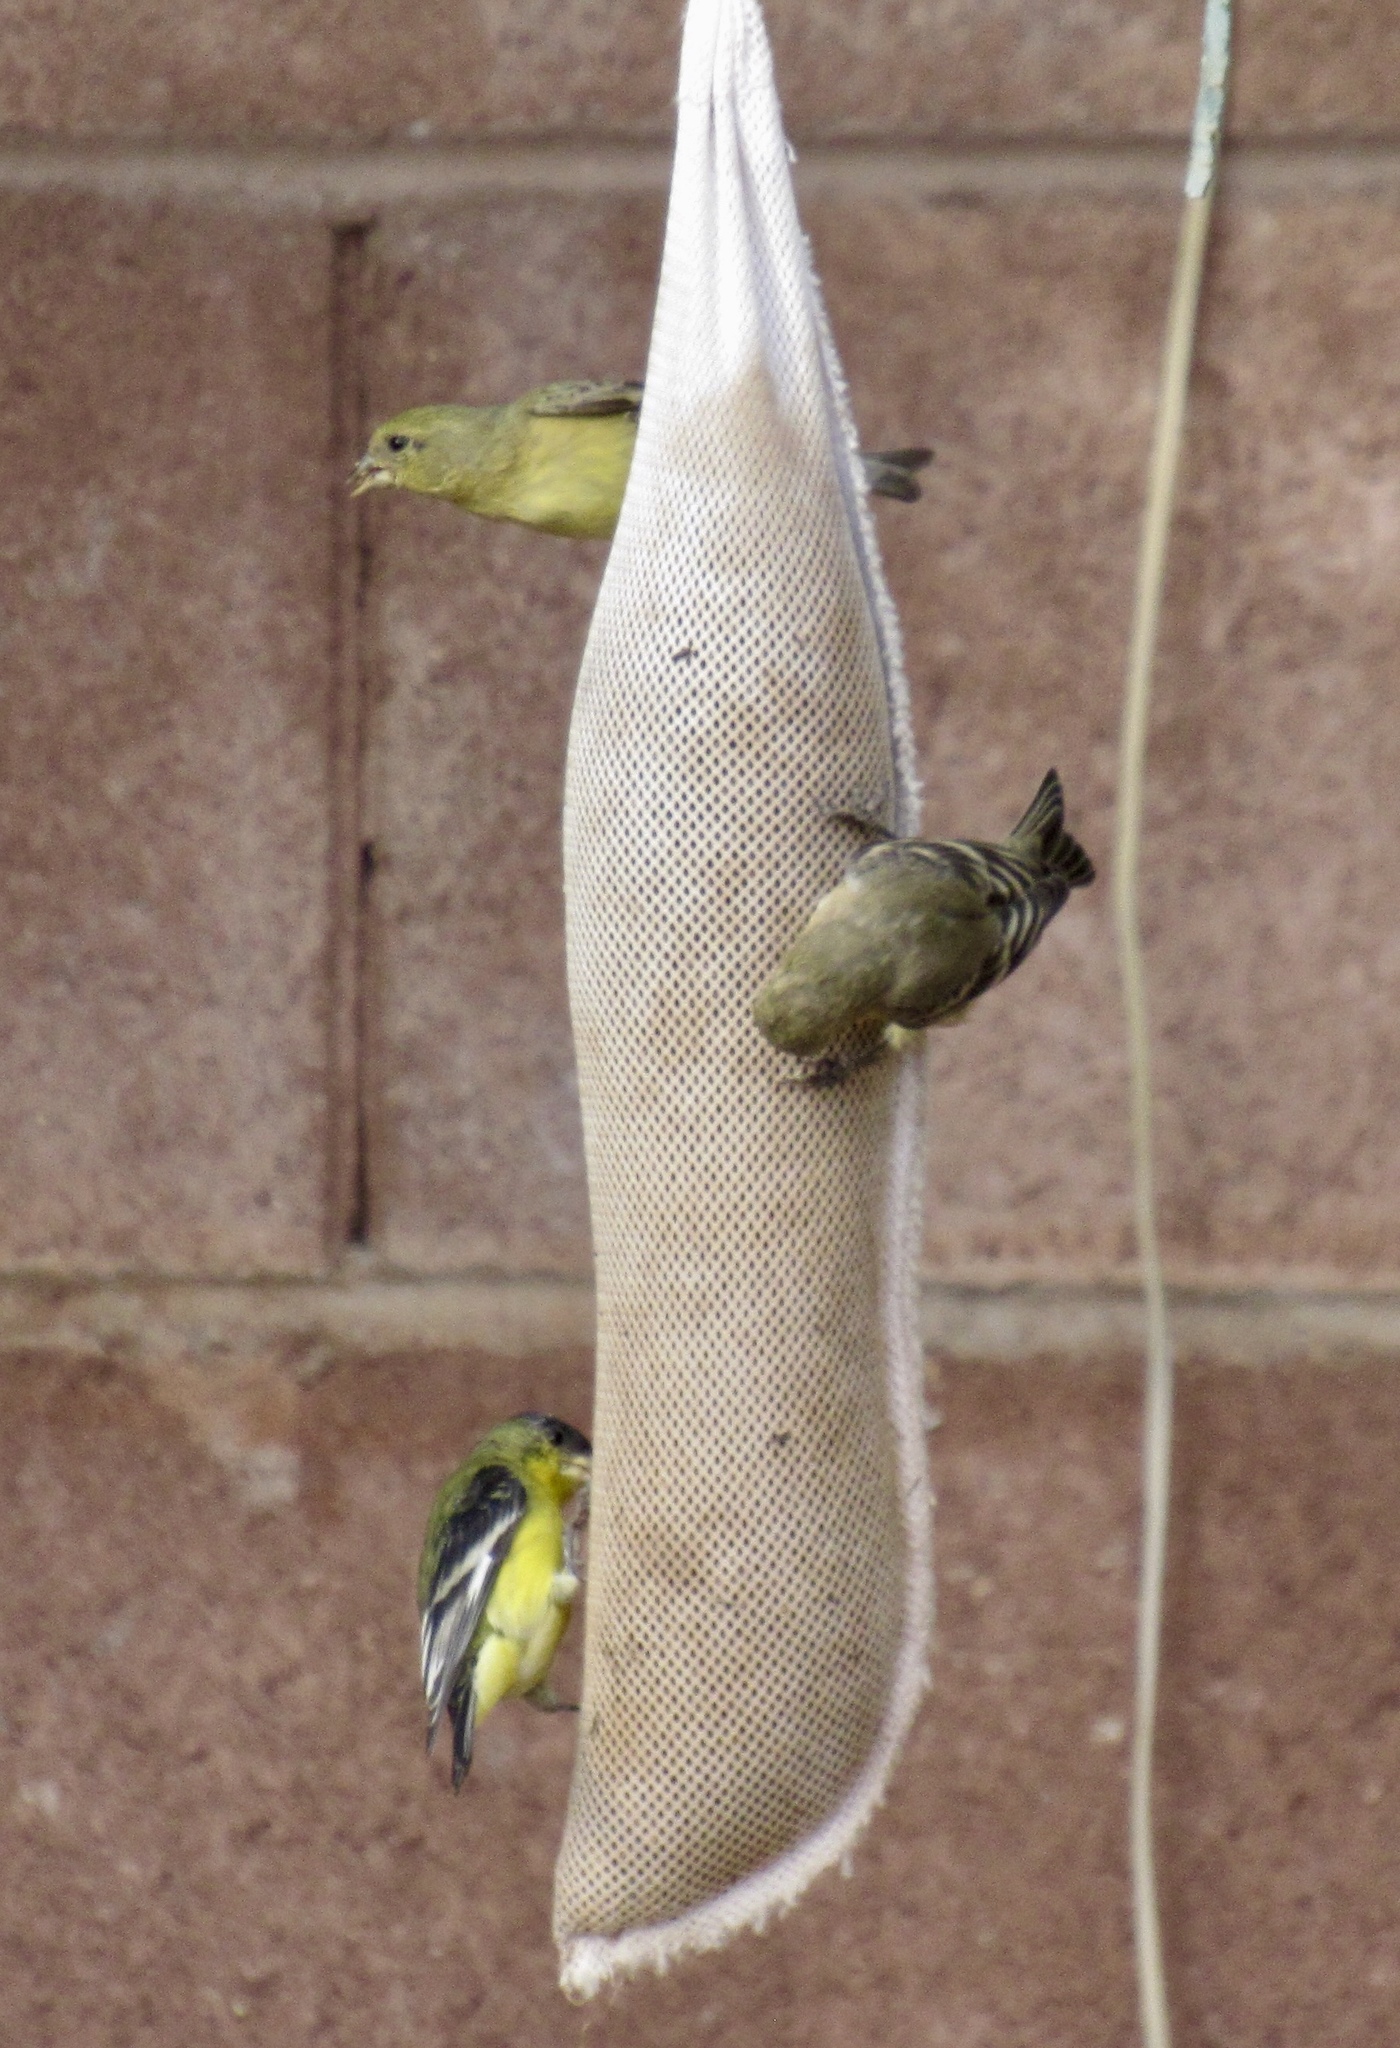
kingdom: Animalia
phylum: Chordata
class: Aves
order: Passeriformes
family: Fringillidae
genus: Spinus
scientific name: Spinus psaltria
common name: Lesser goldfinch
